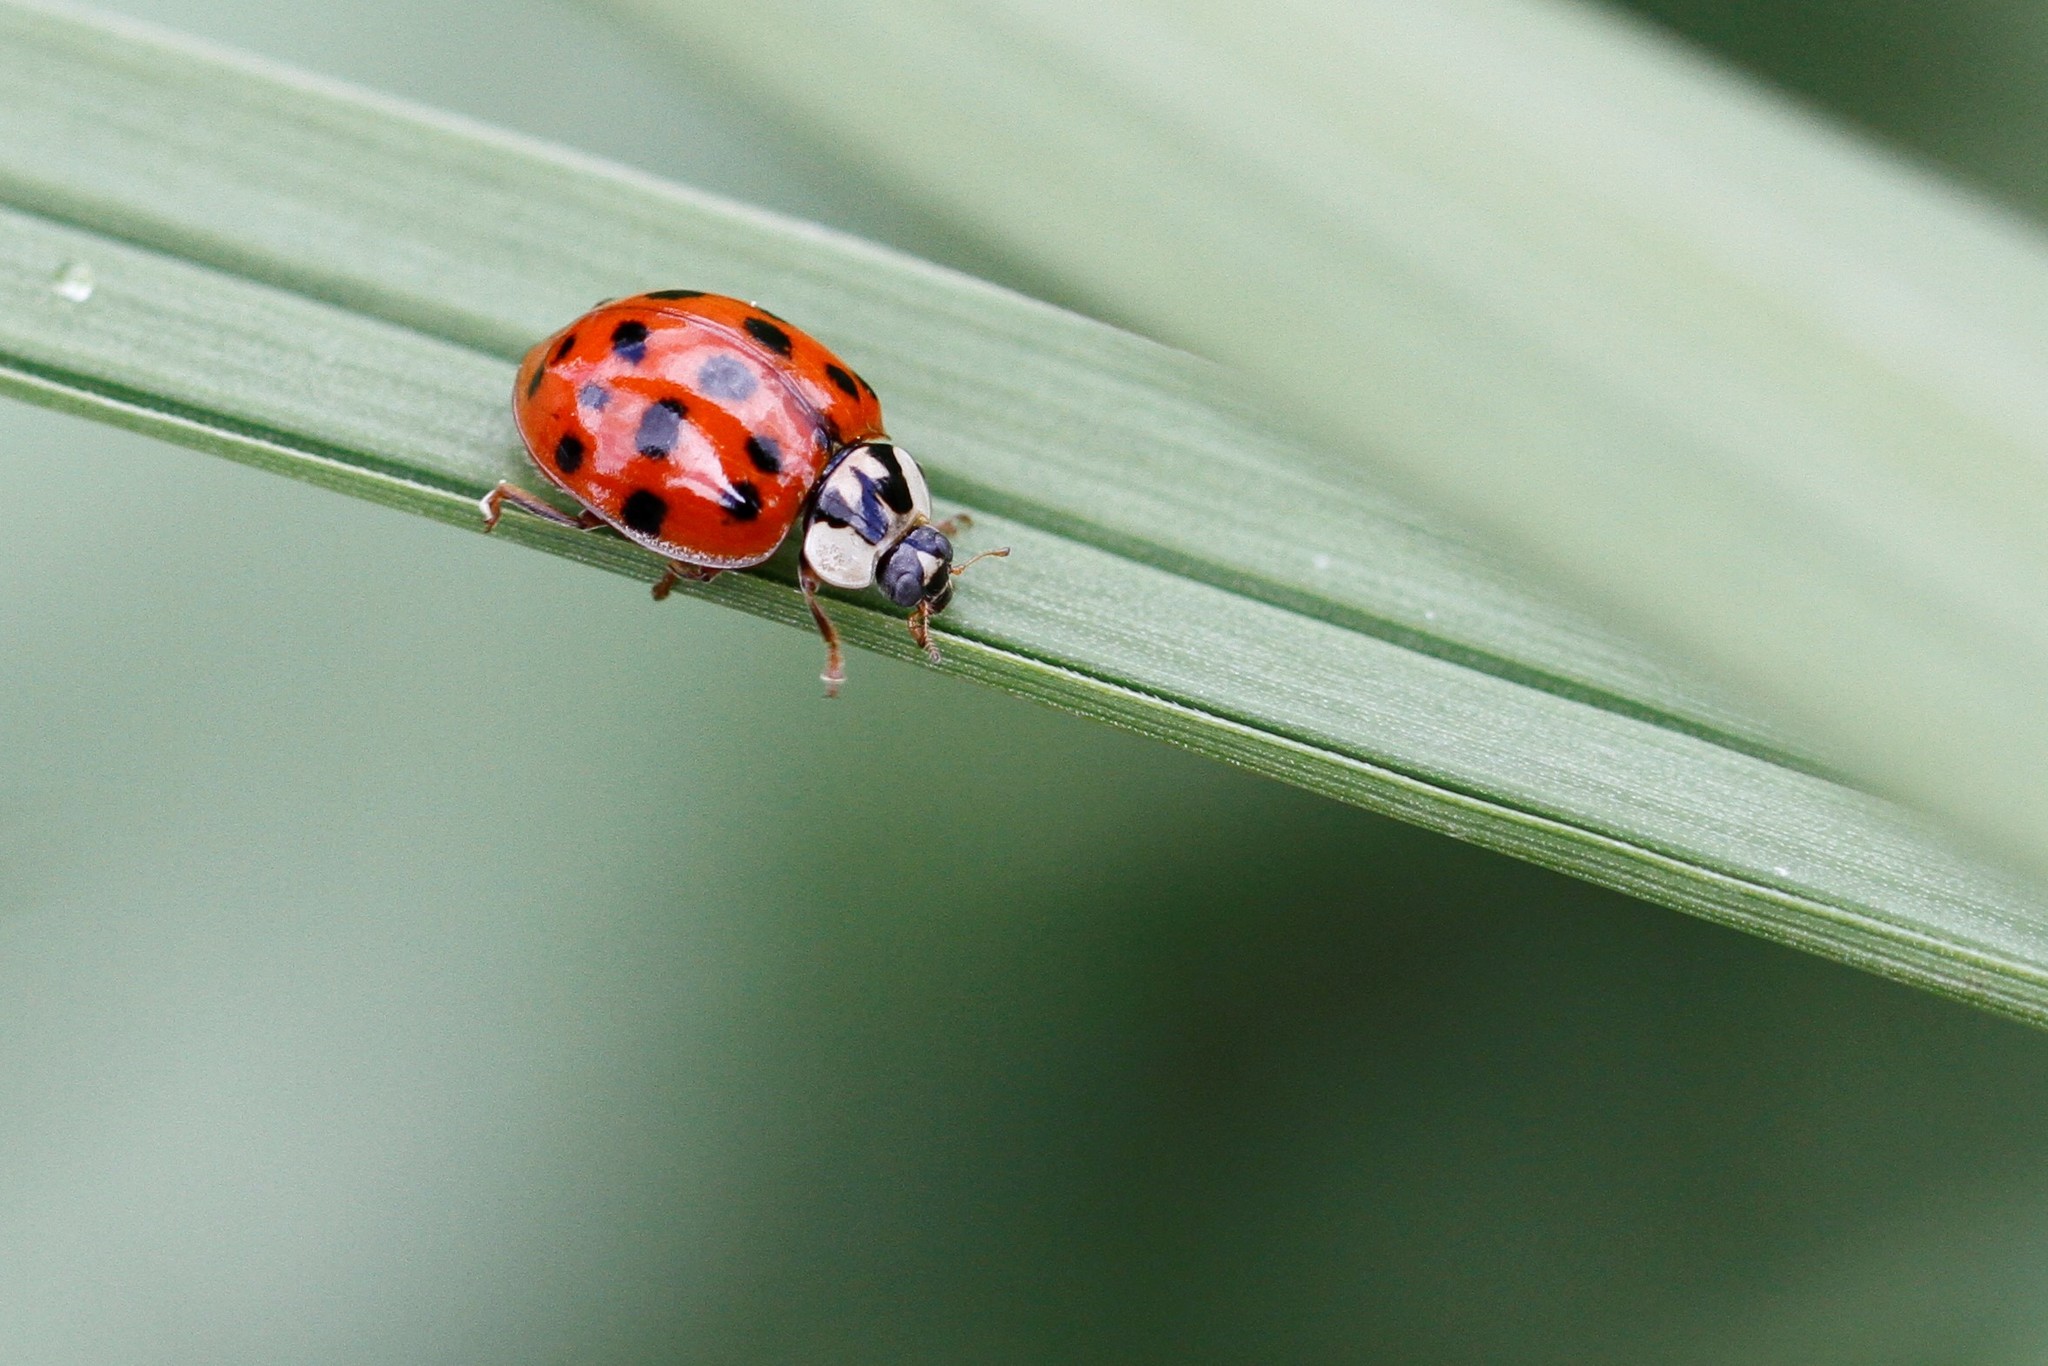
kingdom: Animalia
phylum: Arthropoda
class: Insecta
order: Coleoptera
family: Coccinellidae
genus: Harmonia
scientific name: Harmonia axyridis
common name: Harlequin ladybird
